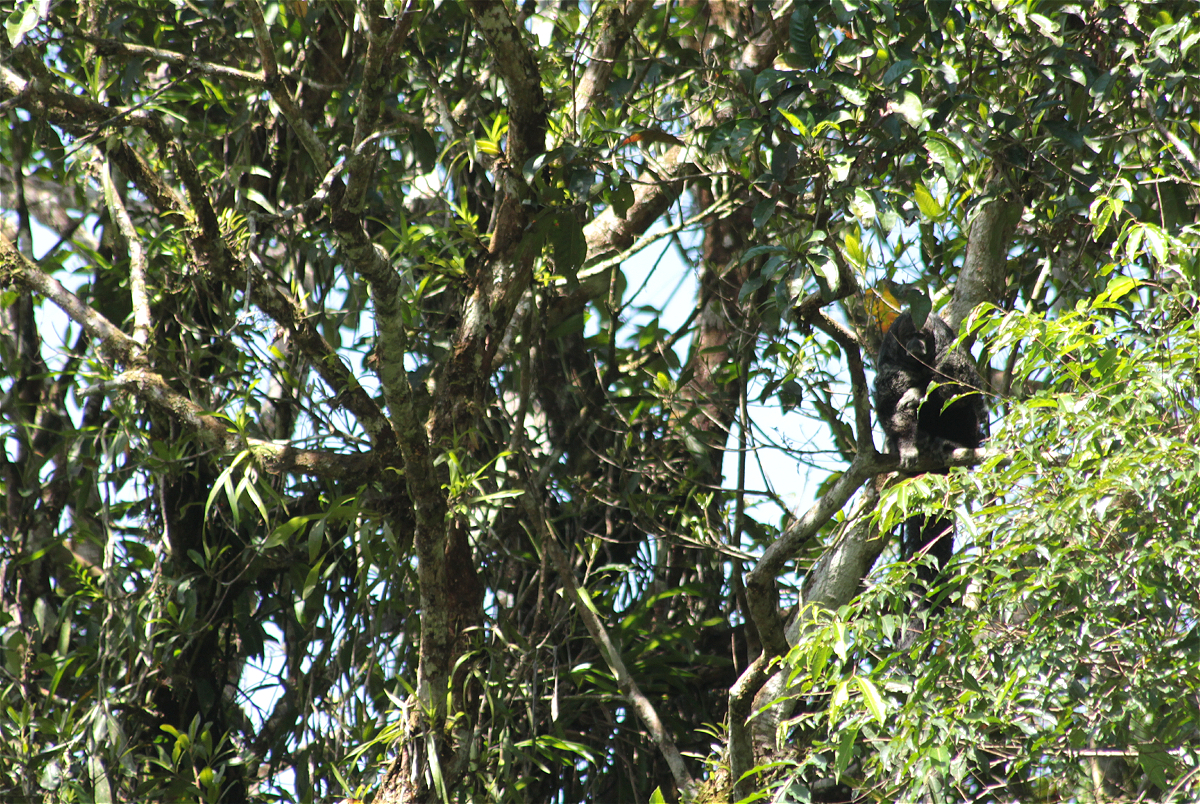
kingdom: Animalia
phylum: Chordata
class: Mammalia
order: Primates
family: Pitheciidae
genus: Pithecia
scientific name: Pithecia milleri
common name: Miller's saki
